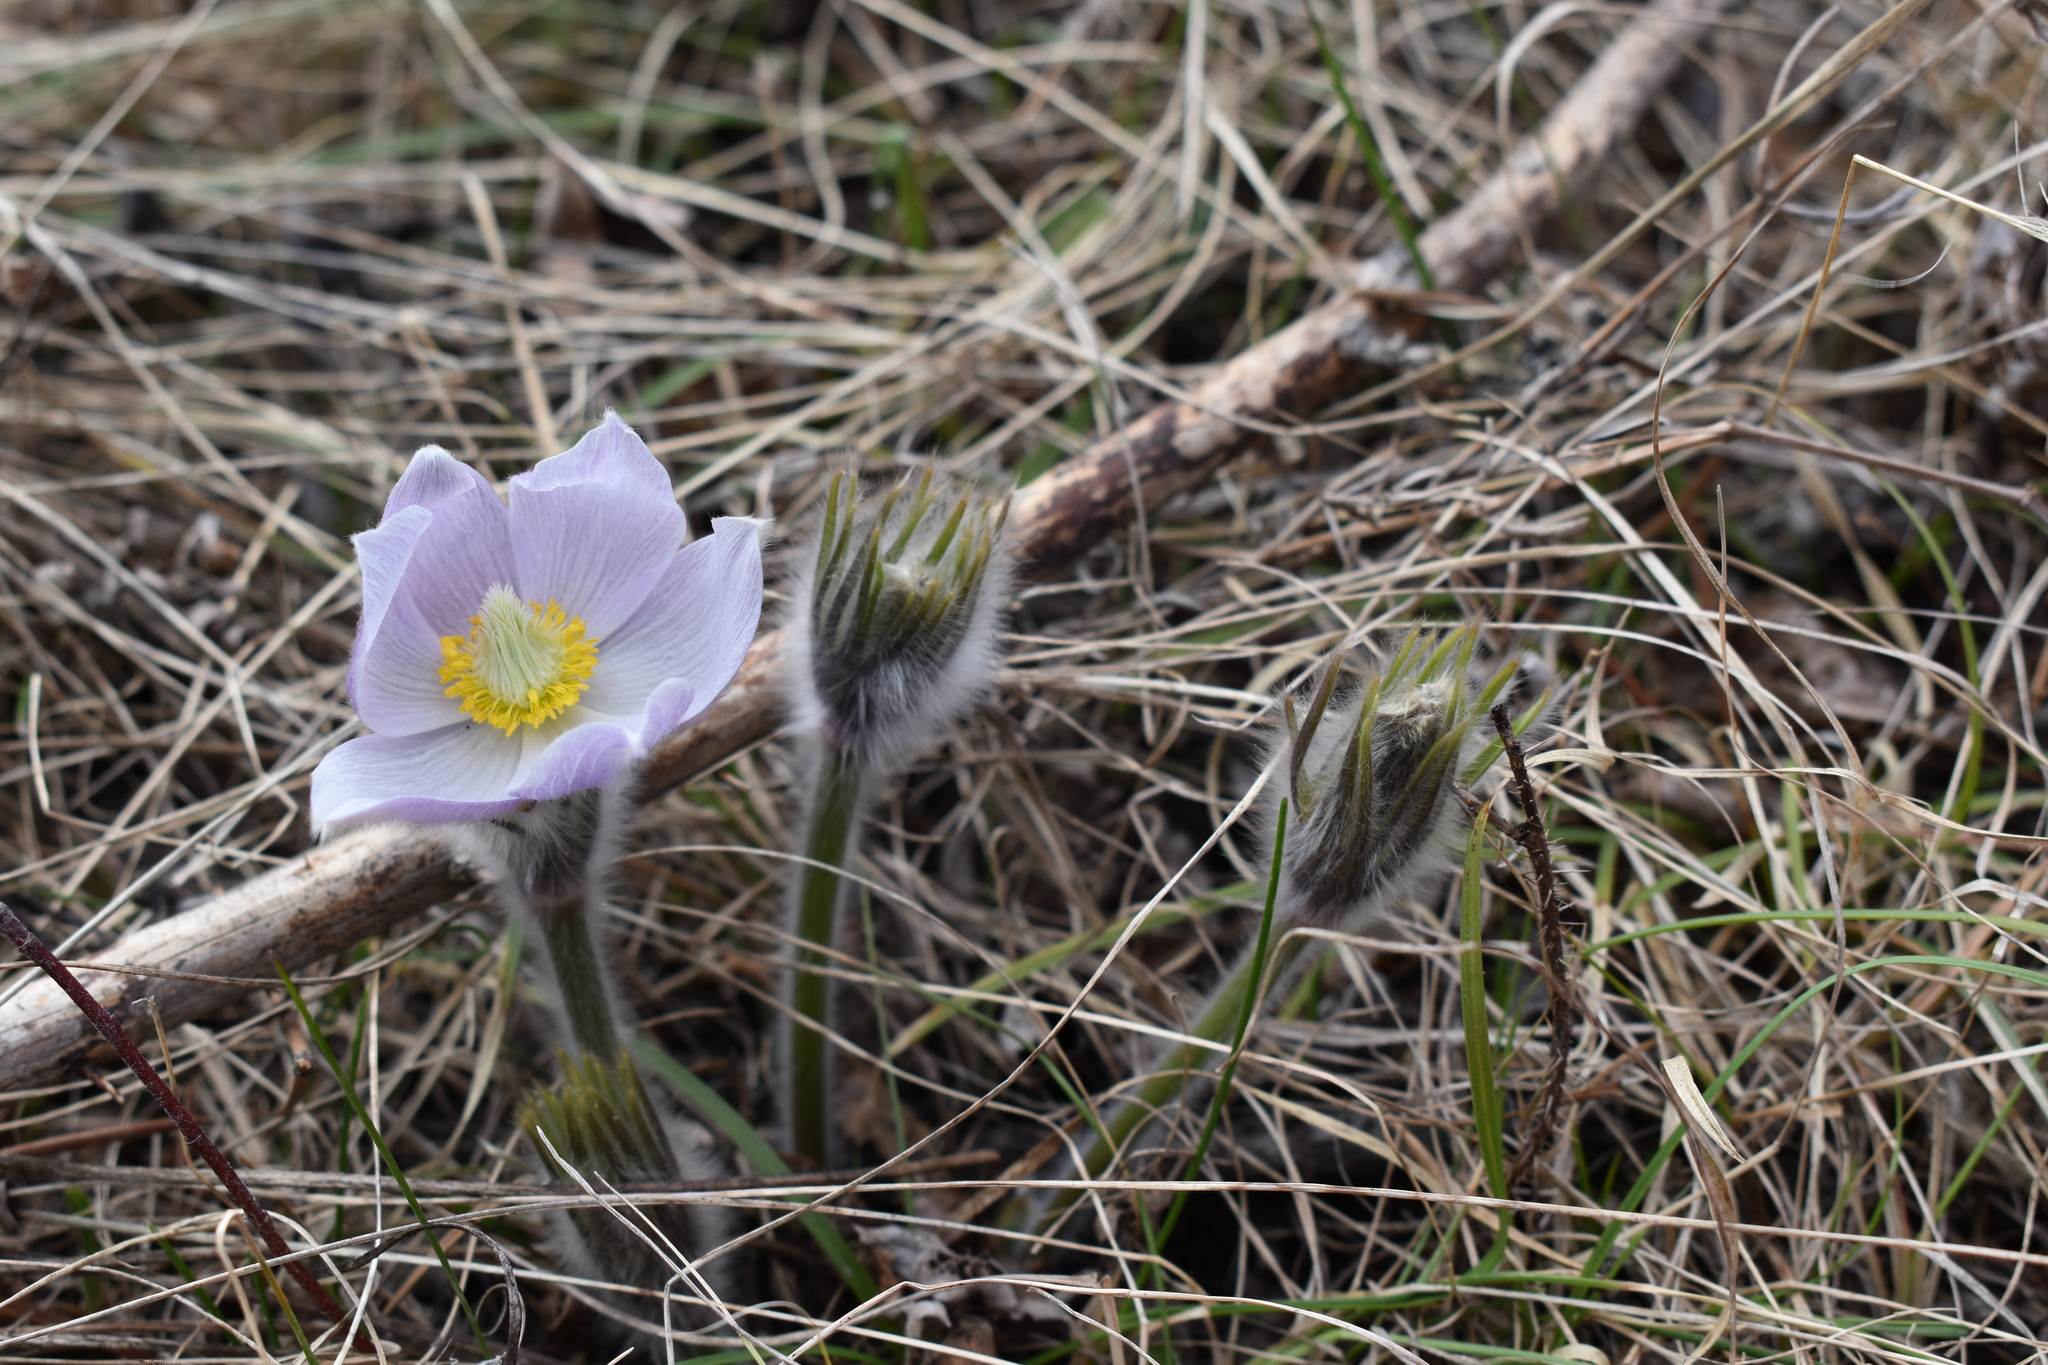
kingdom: Plantae
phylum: Tracheophyta
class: Magnoliopsida
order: Ranunculales
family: Ranunculaceae
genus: Pulsatilla
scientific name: Pulsatilla nuttalliana
